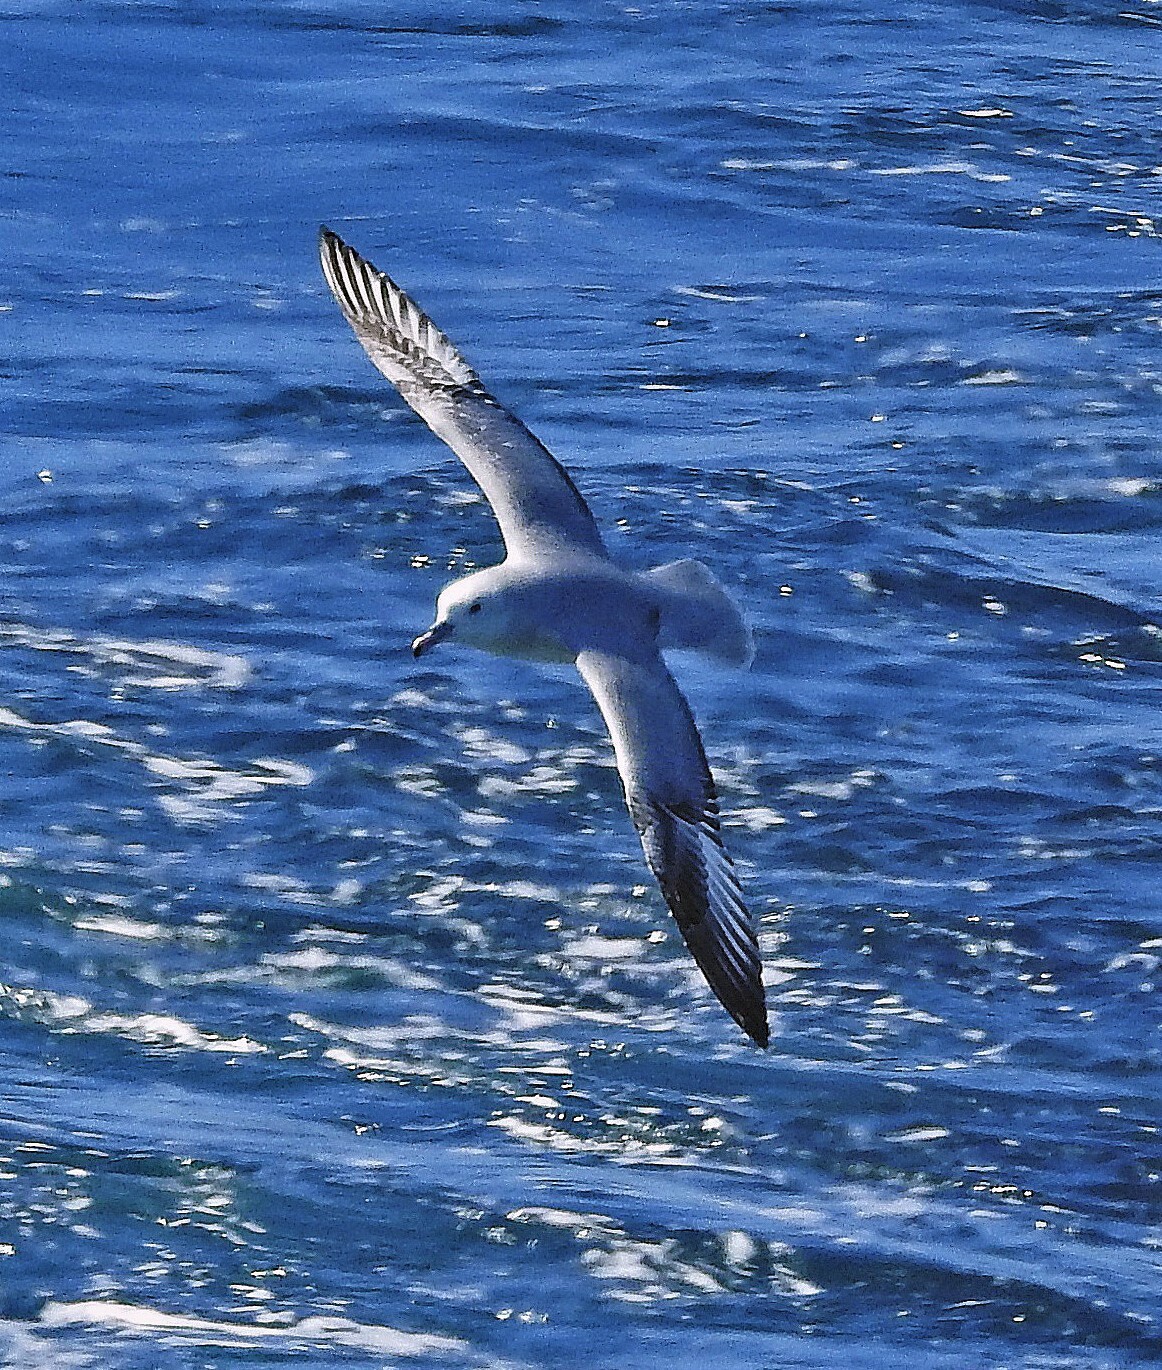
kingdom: Animalia
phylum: Chordata
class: Aves
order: Procellariiformes
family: Procellariidae
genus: Fulmarus
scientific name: Fulmarus glacialoides
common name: Southern fulmar
